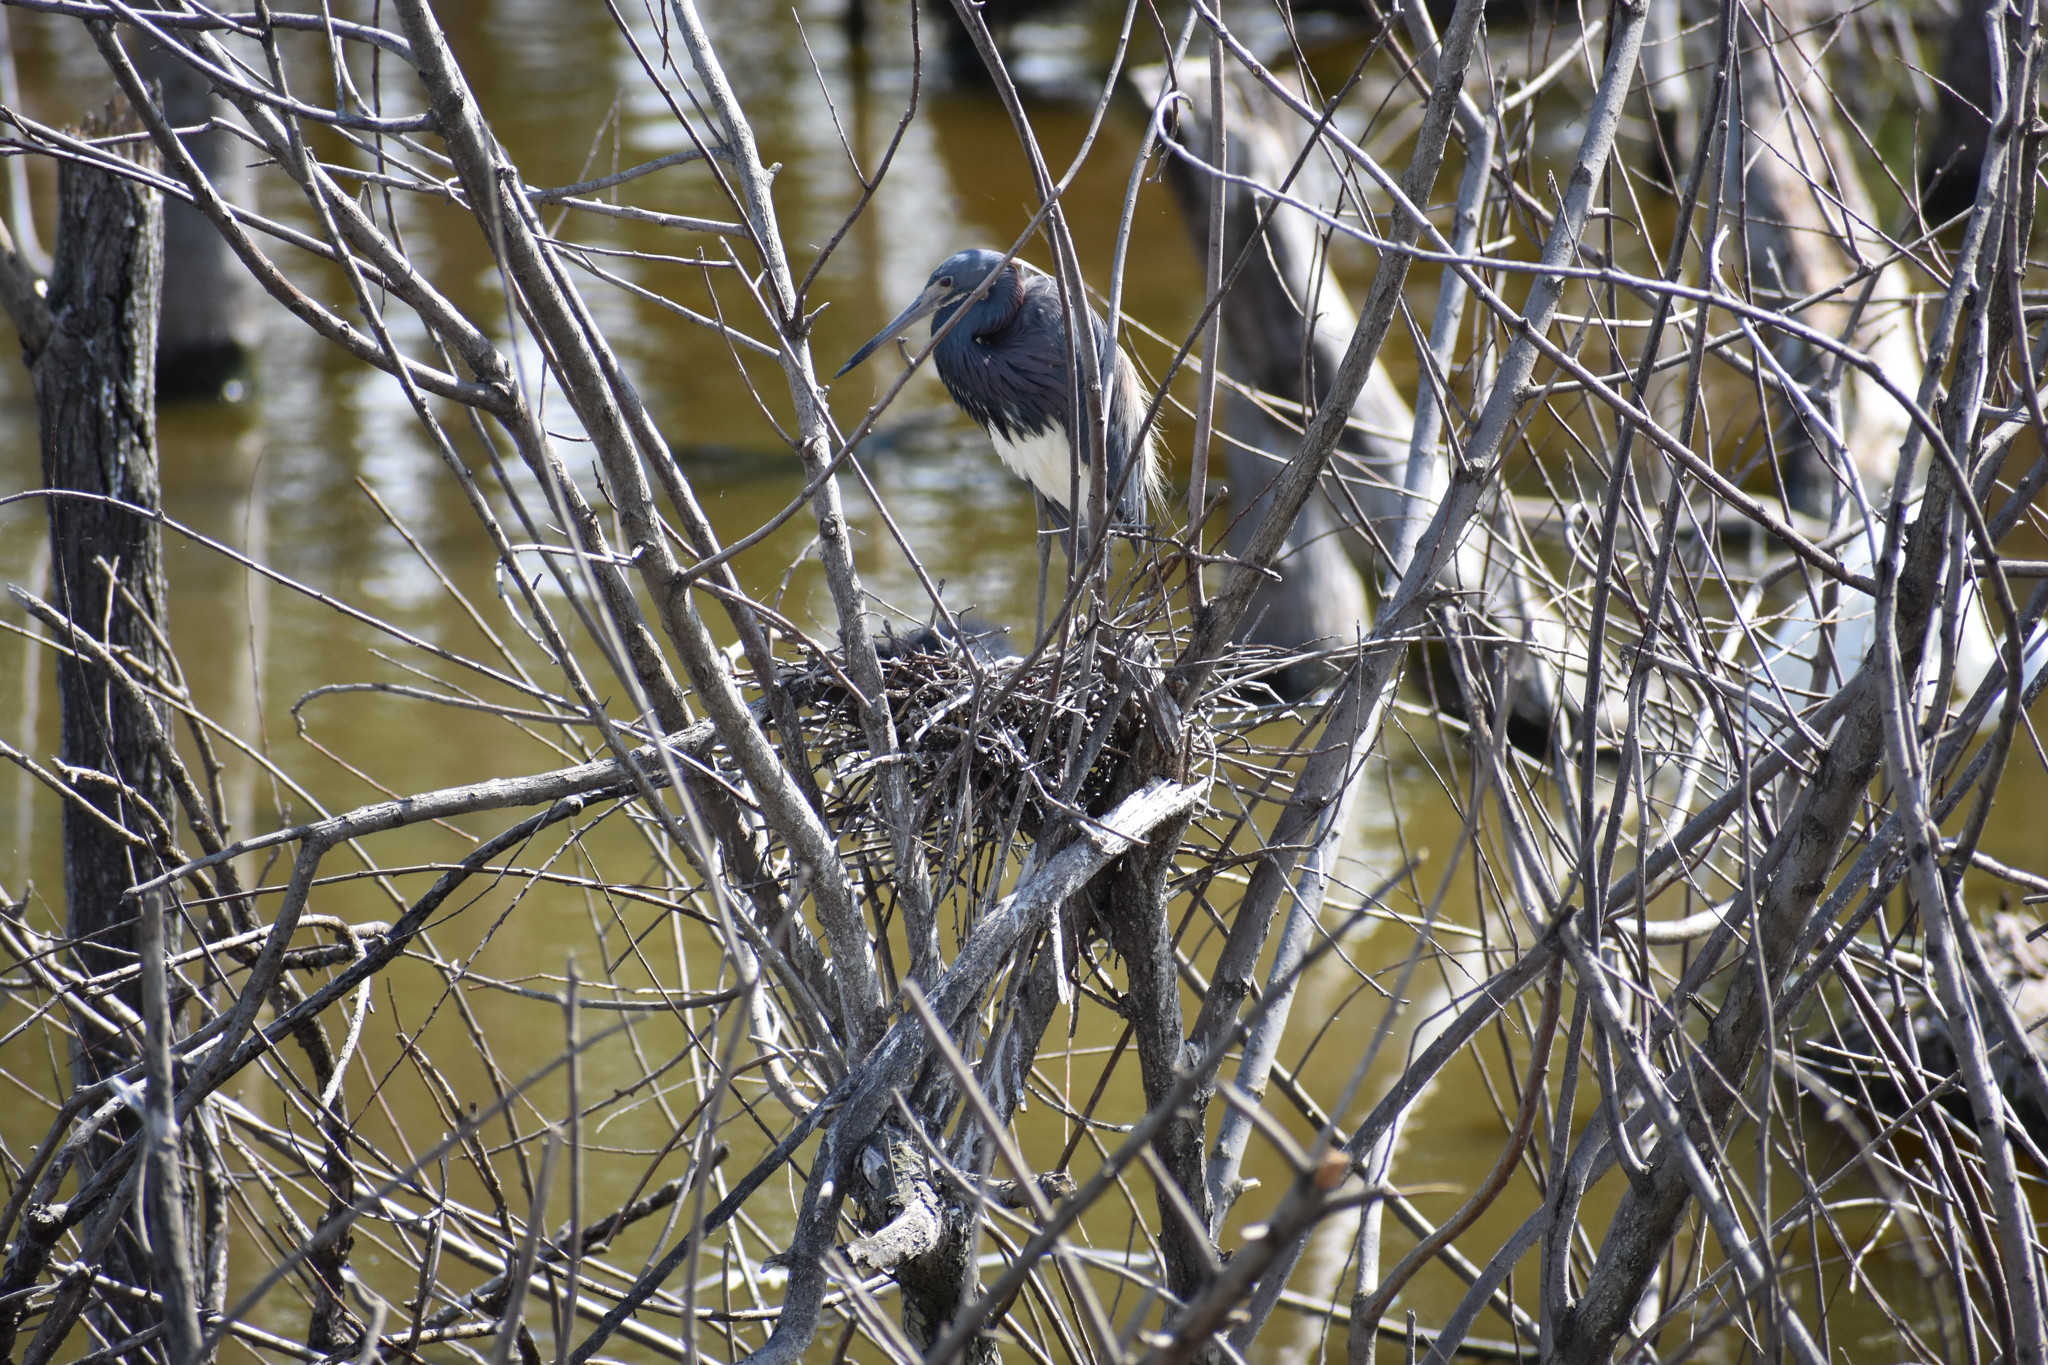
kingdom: Animalia
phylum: Chordata
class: Aves
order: Pelecaniformes
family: Ardeidae
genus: Egretta
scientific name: Egretta tricolor
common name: Tricolored heron
